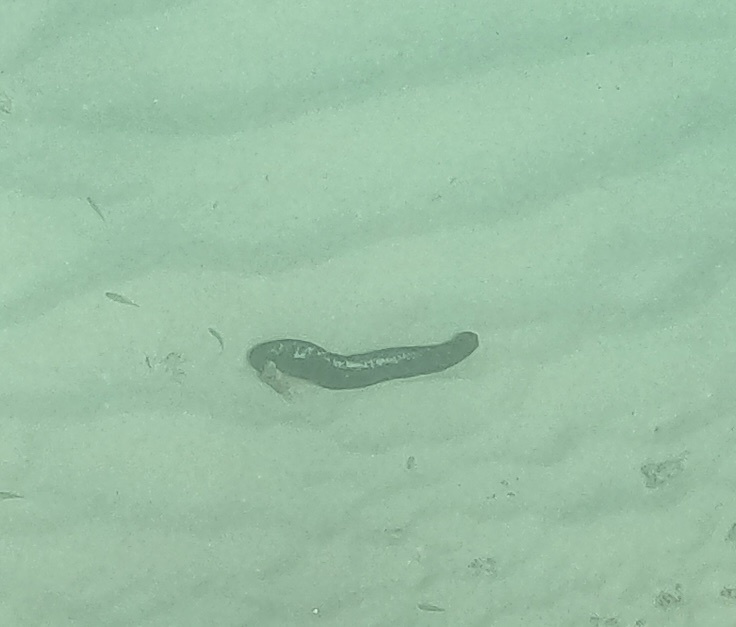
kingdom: Animalia
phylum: Echinodermata
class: Holothuroidea
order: Holothuriida
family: Holothuriidae
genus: Holothuria
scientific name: Holothuria atra
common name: Lollyfish
